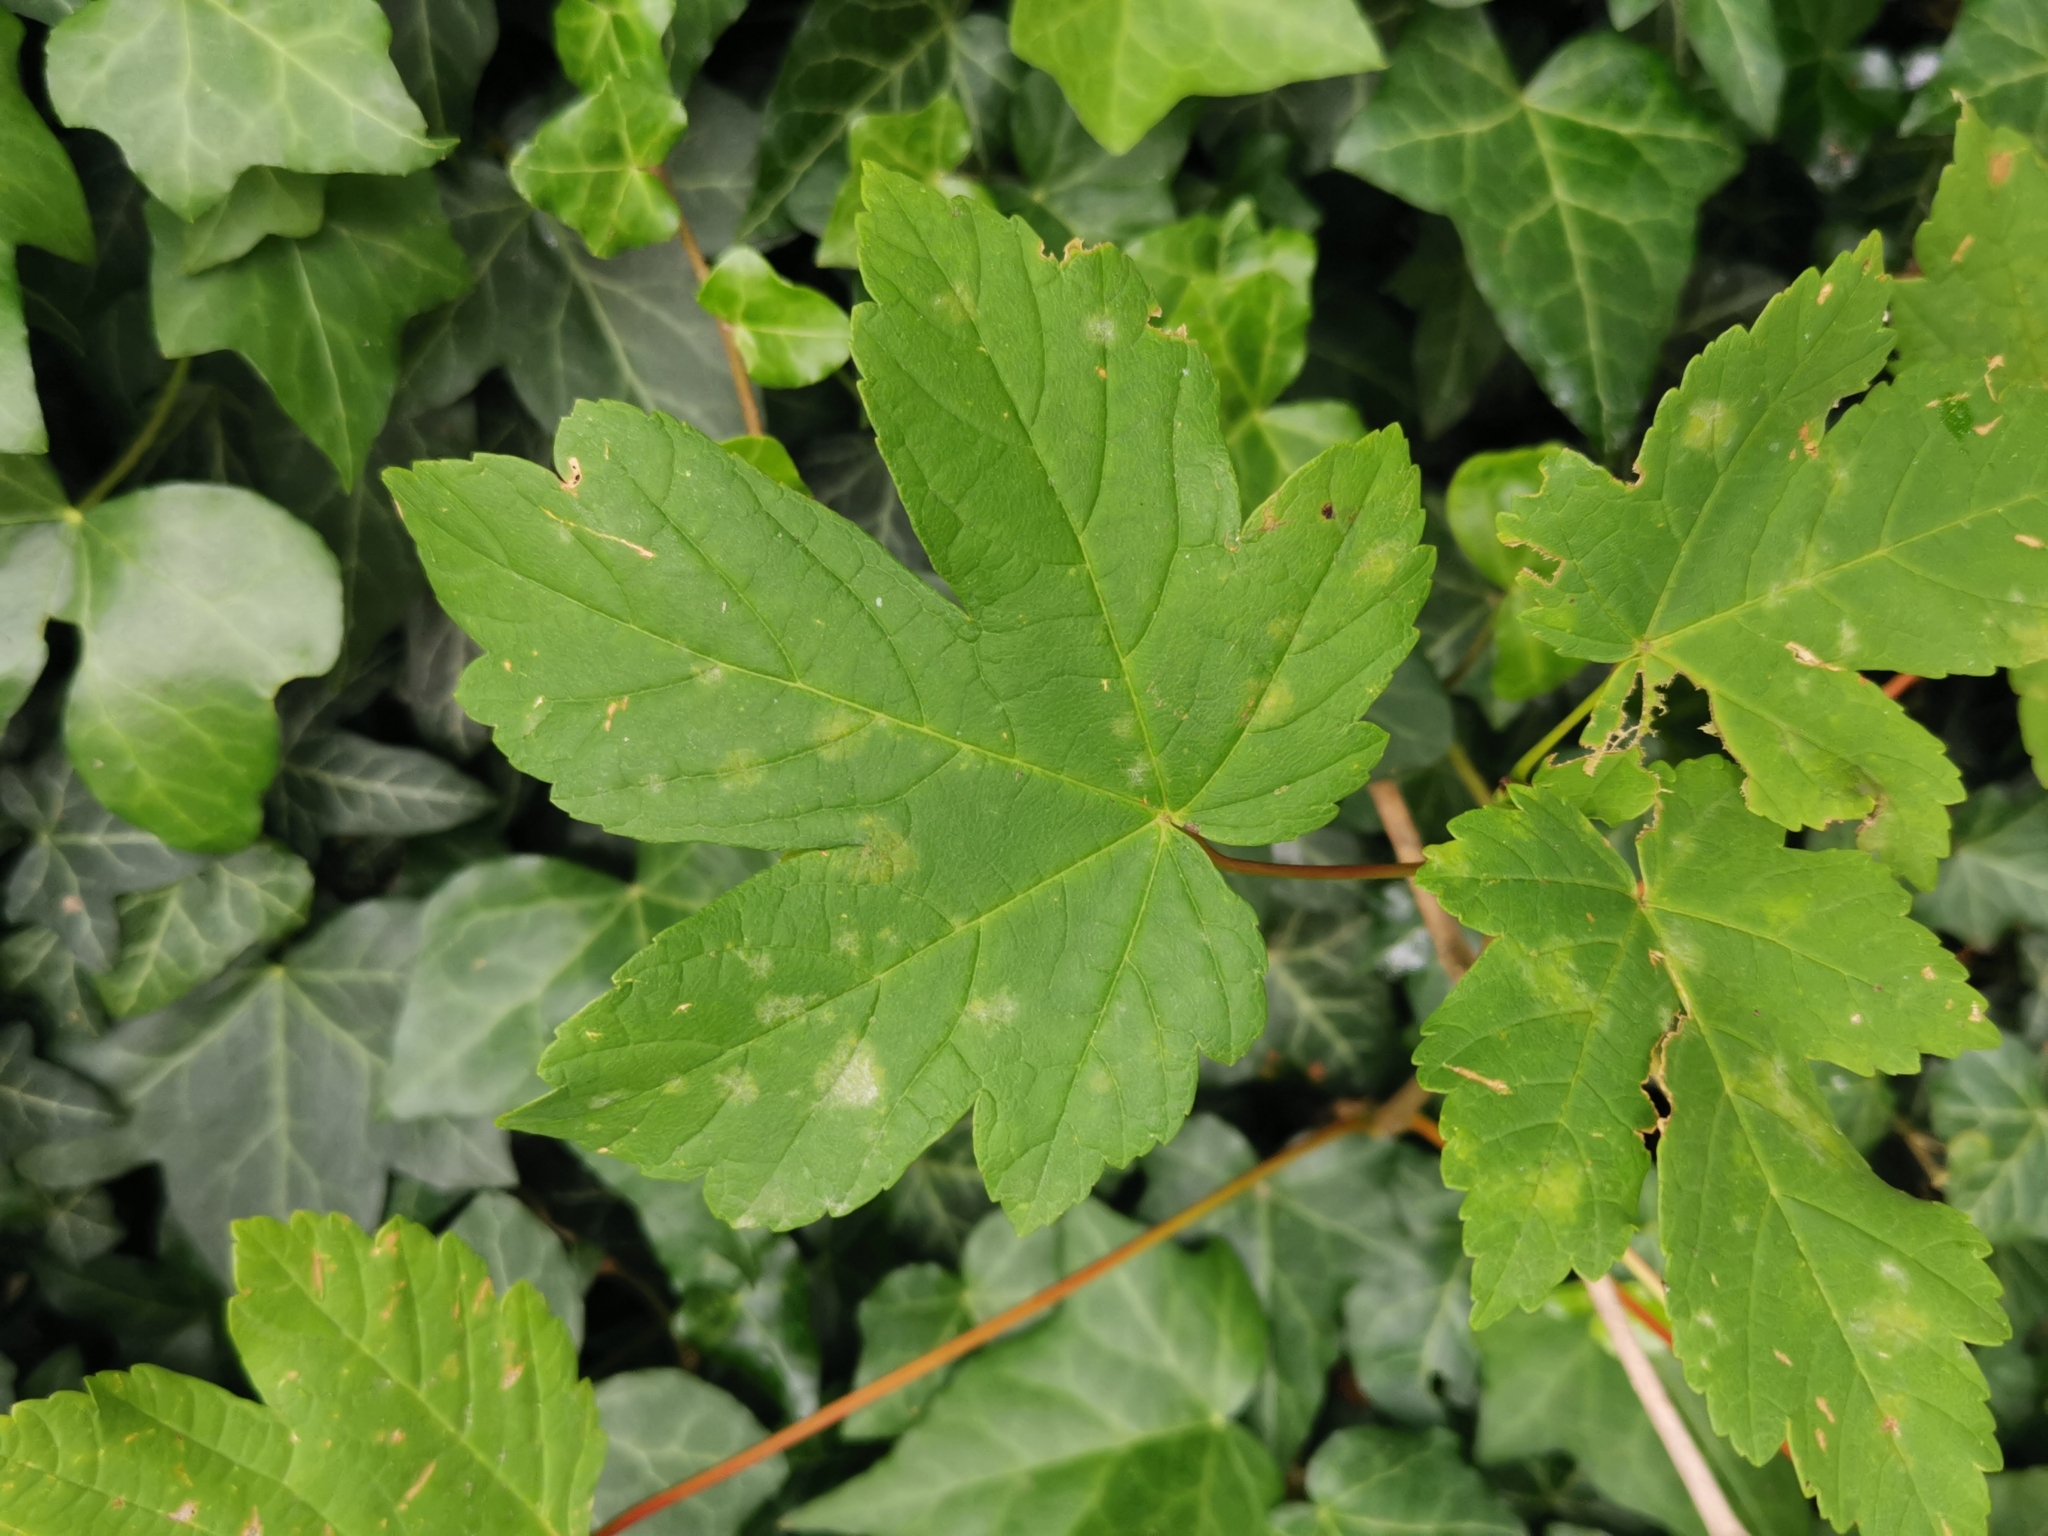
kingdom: Plantae
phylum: Tracheophyta
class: Magnoliopsida
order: Sapindales
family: Sapindaceae
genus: Acer
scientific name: Acer pseudoplatanus
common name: Sycamore
